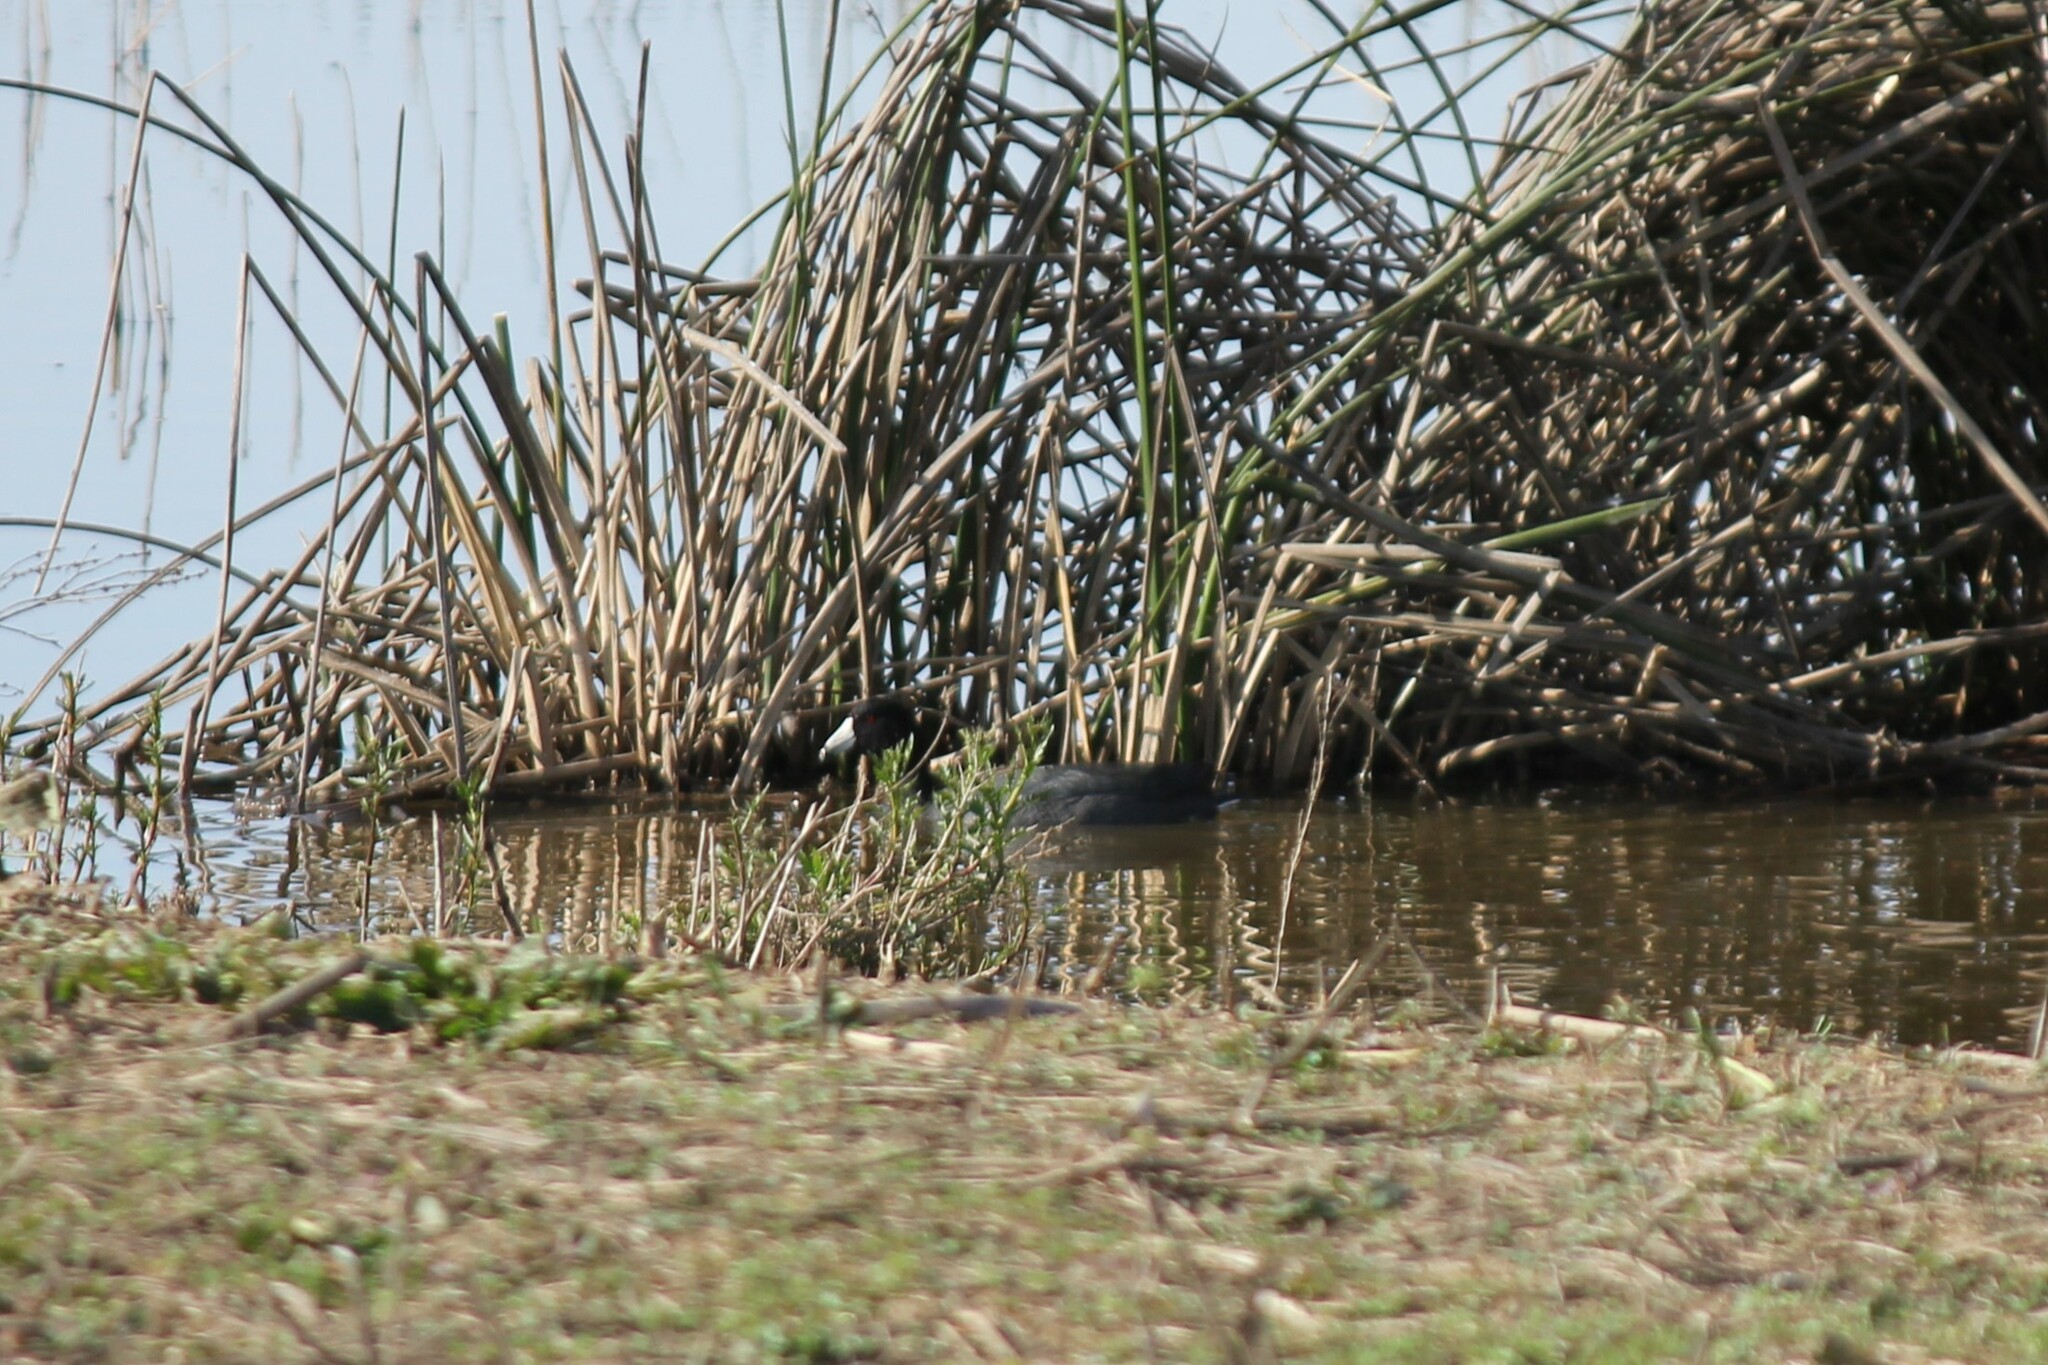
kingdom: Animalia
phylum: Chordata
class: Aves
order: Gruiformes
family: Rallidae
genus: Fulica
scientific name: Fulica americana
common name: American coot
